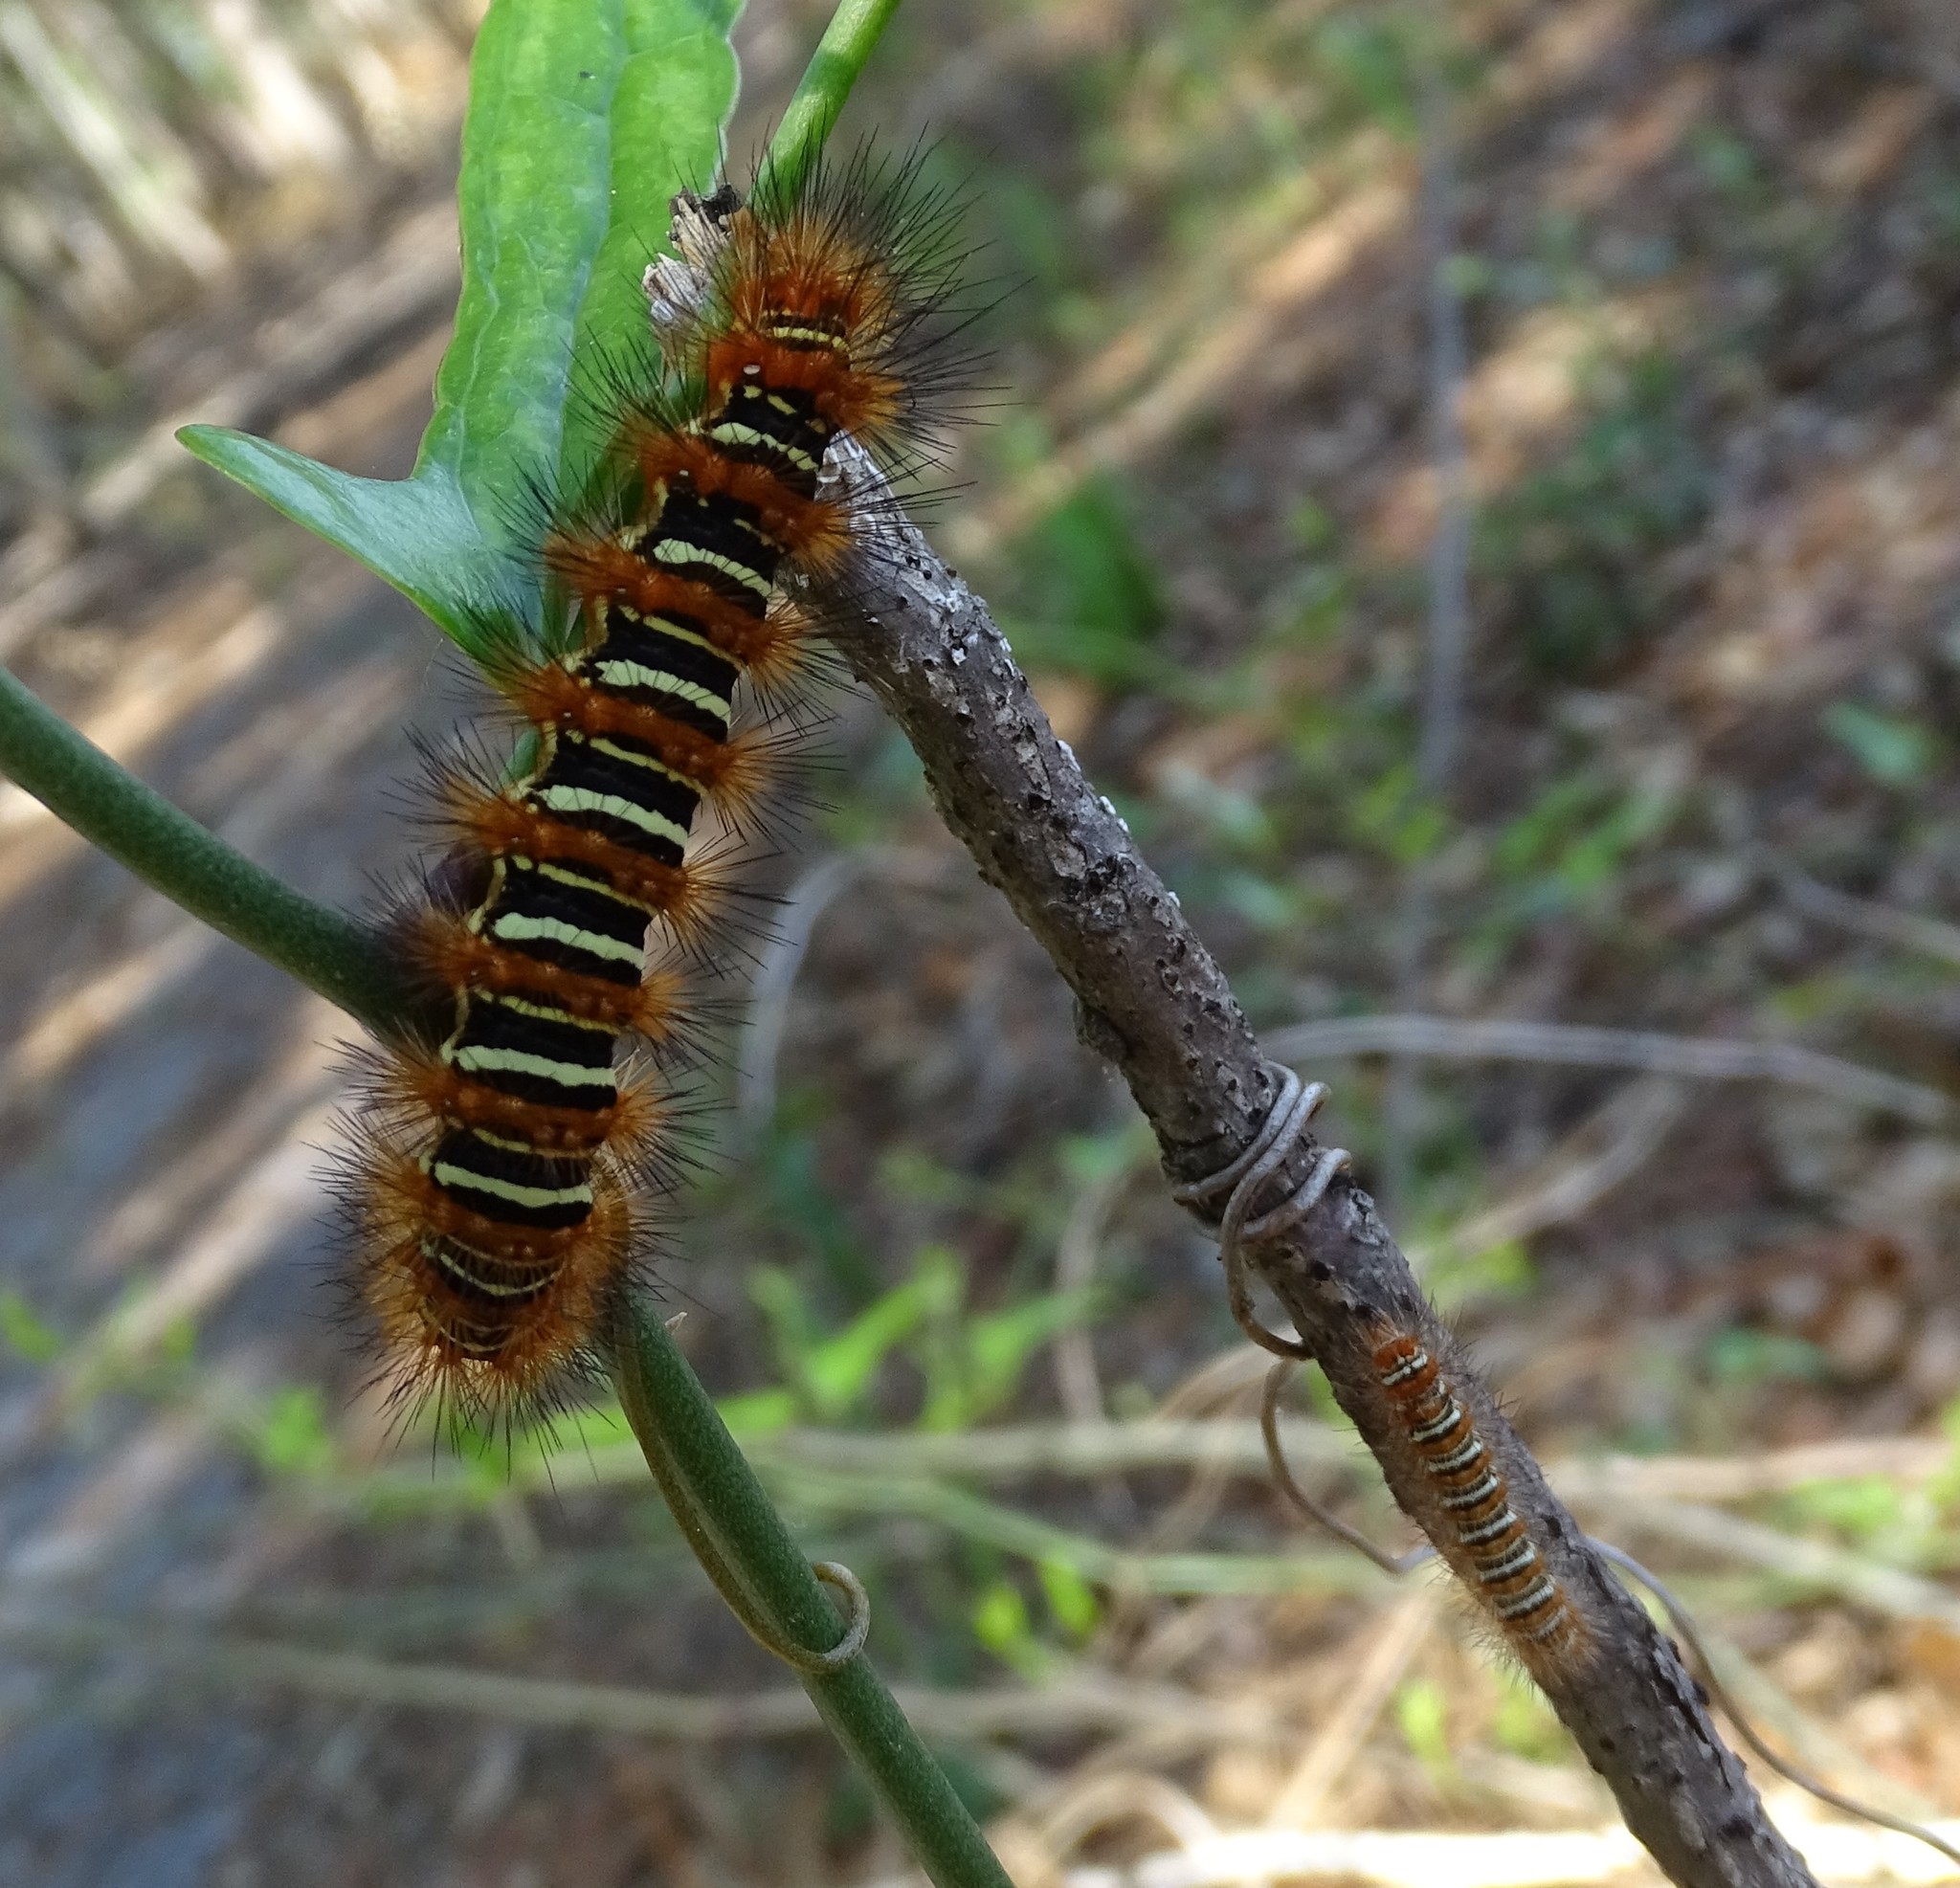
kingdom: Animalia
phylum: Arthropoda
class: Insecta
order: Lepidoptera
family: Erebidae
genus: Seirarctia
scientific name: Seirarctia echo
